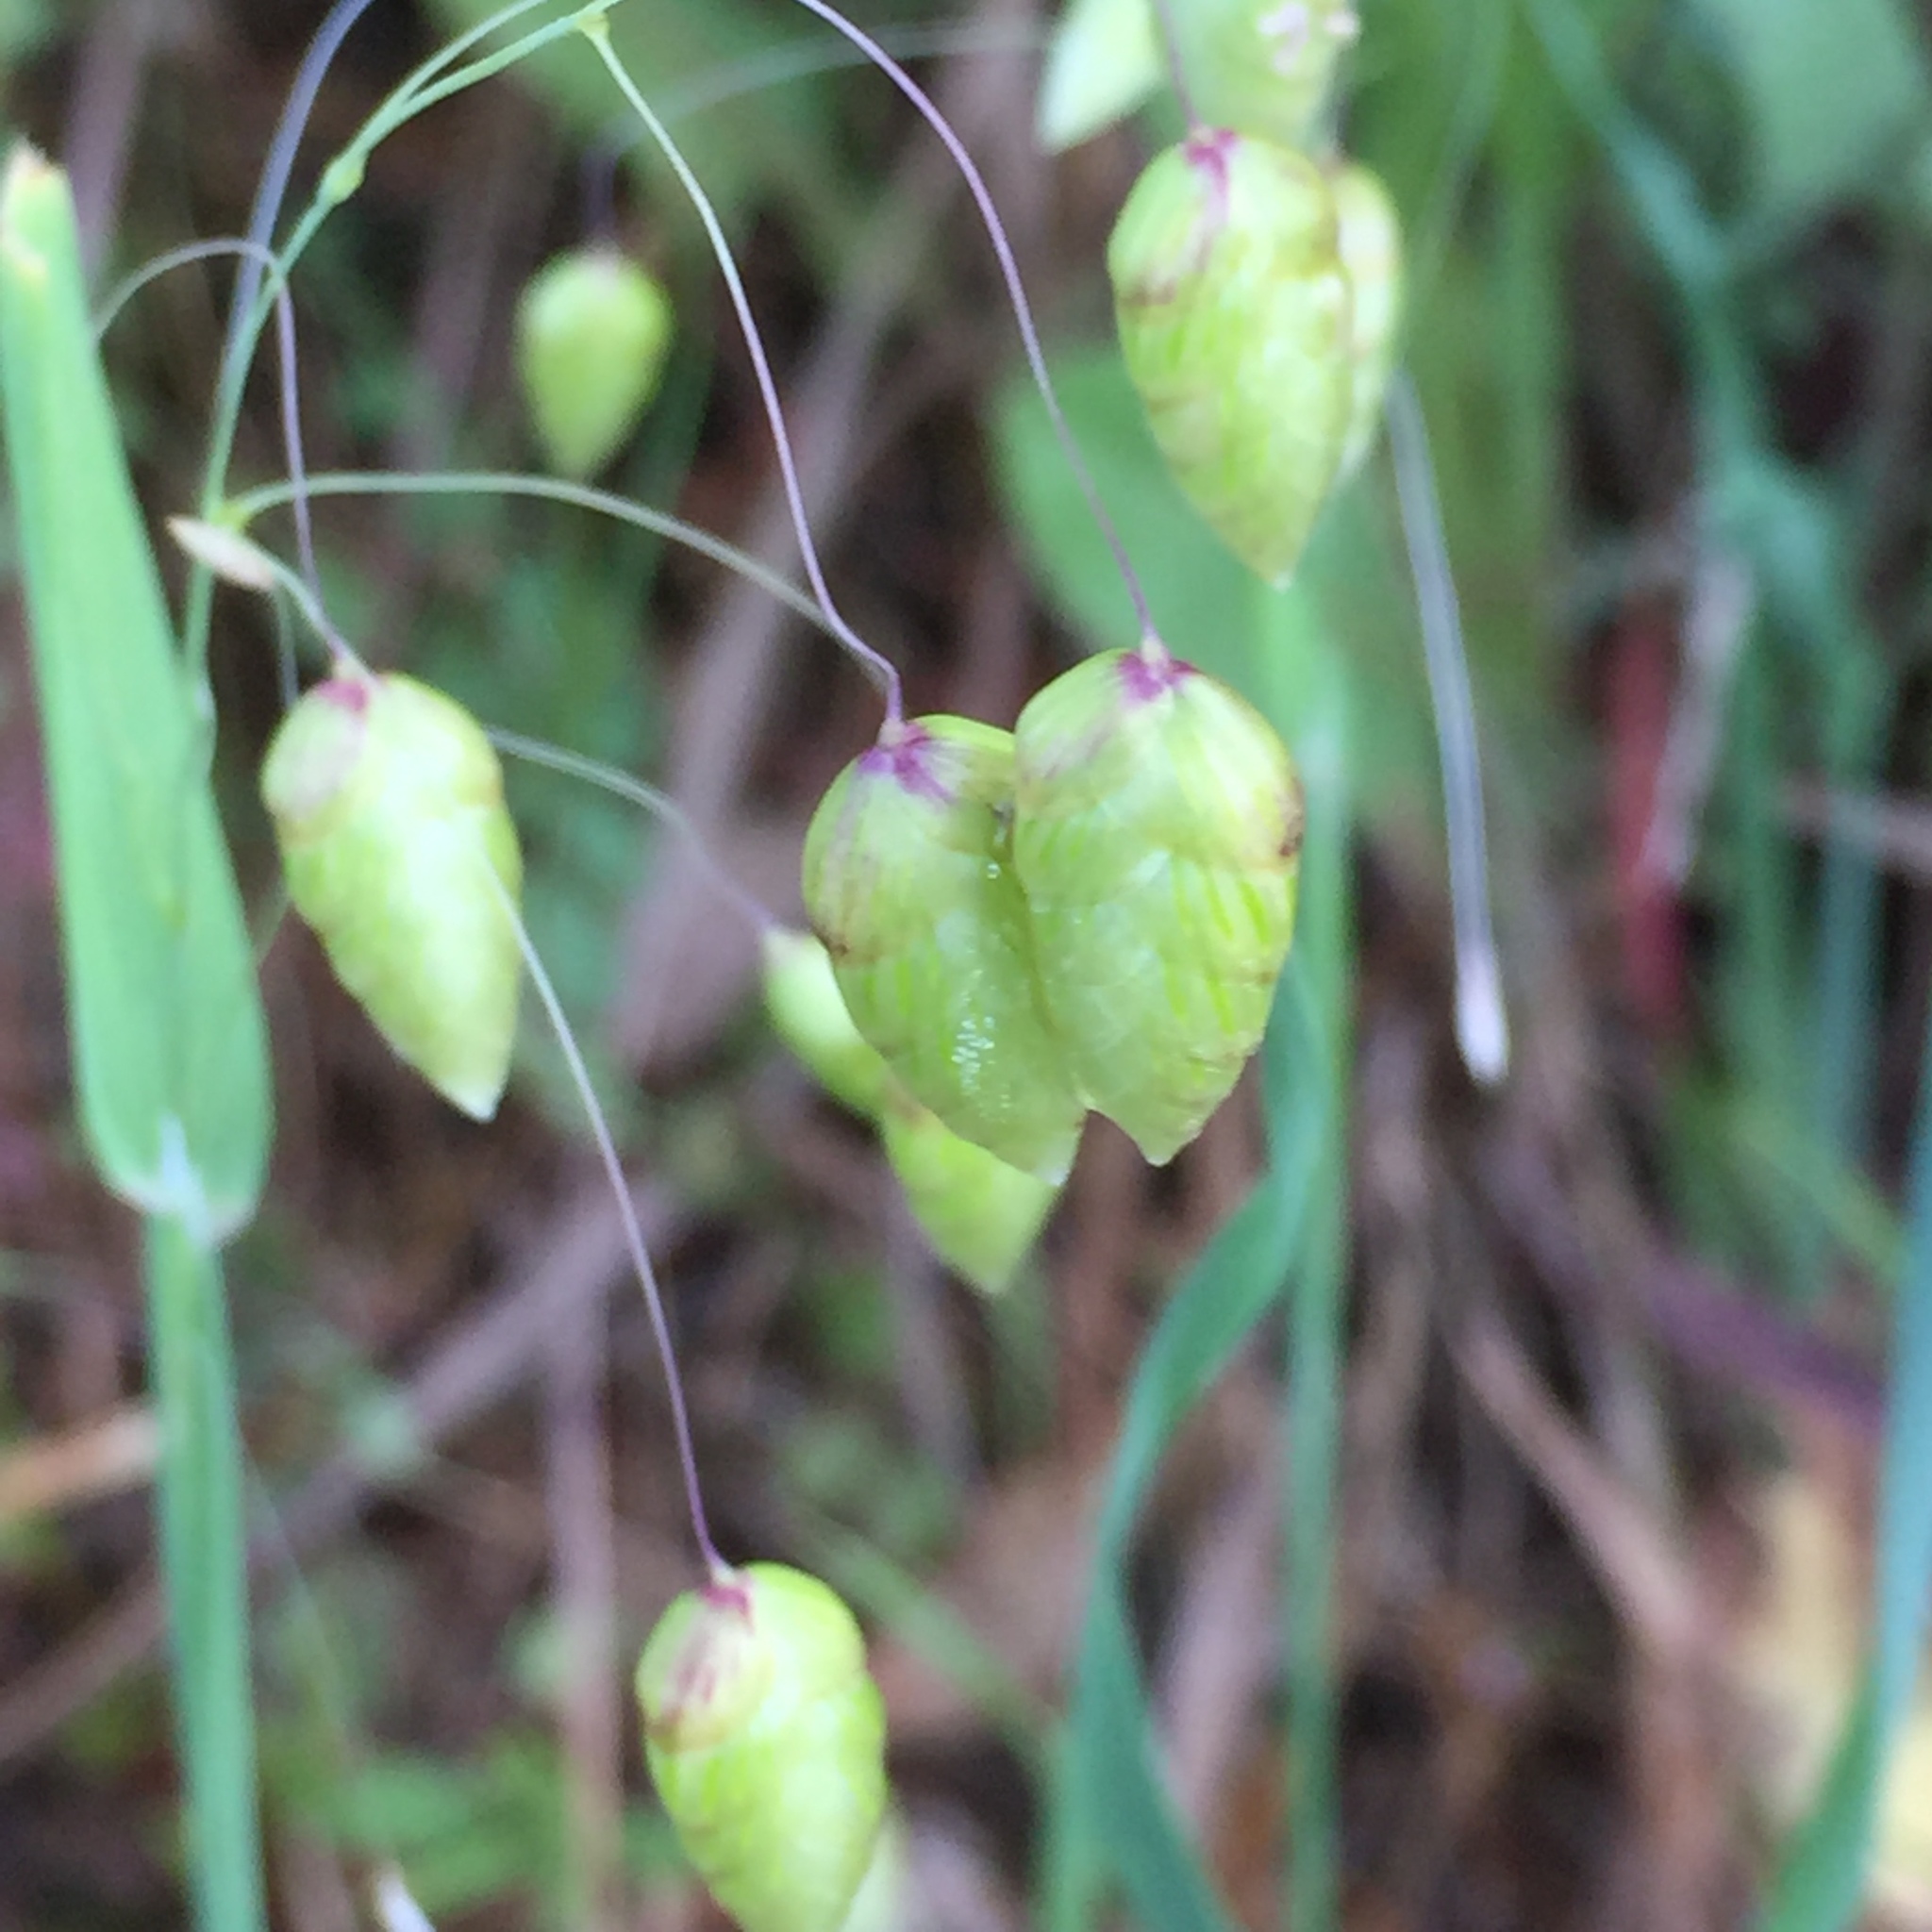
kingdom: Plantae
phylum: Tracheophyta
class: Liliopsida
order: Poales
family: Poaceae
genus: Briza
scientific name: Briza maxima
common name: Big quakinggrass
